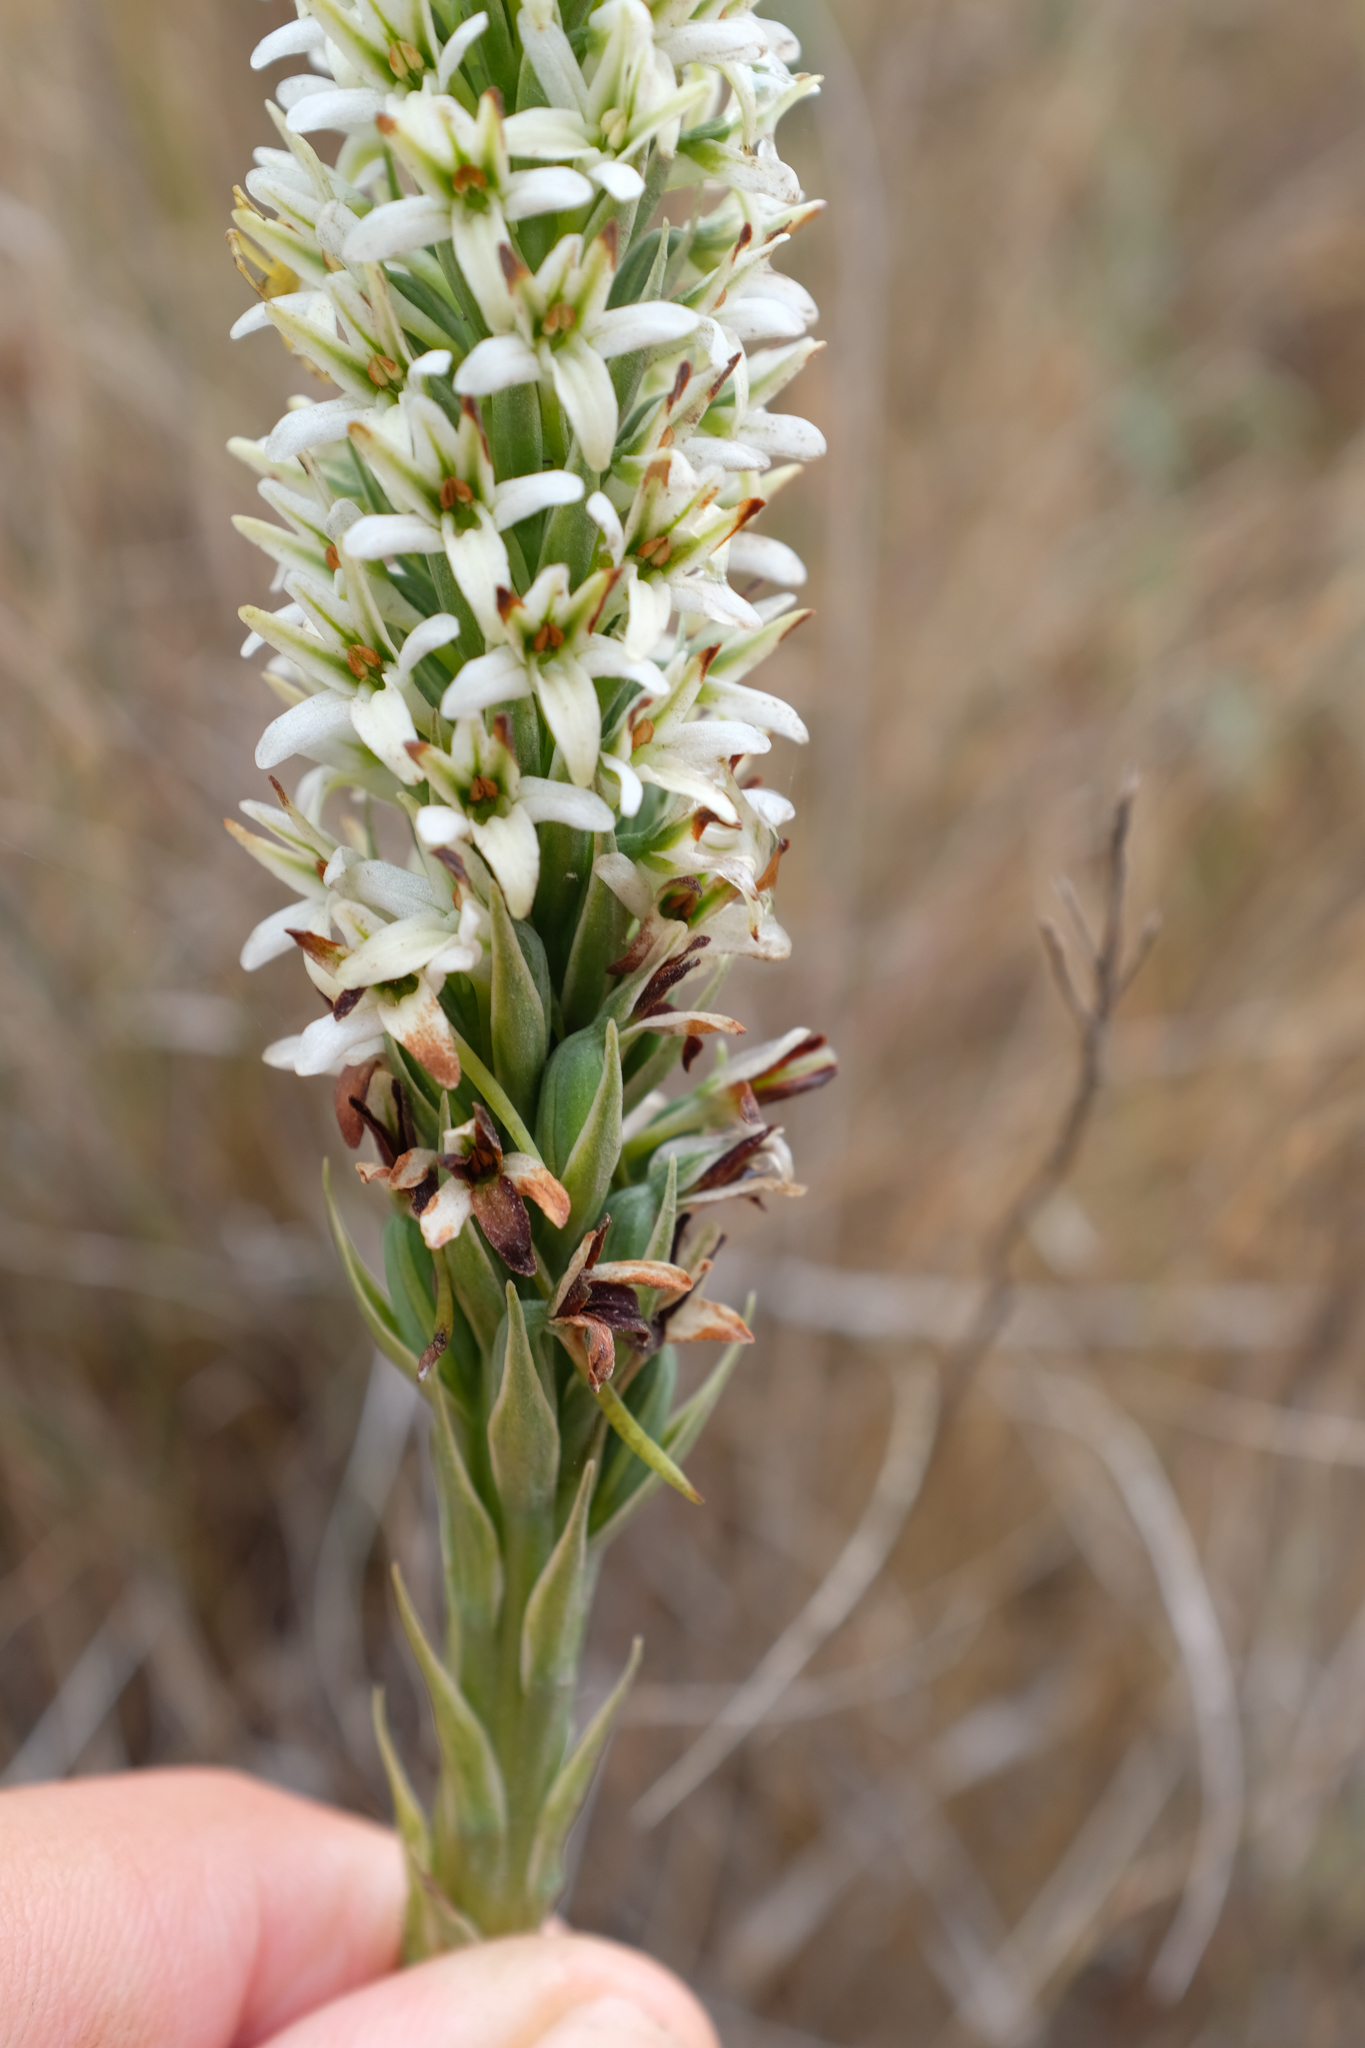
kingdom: Plantae
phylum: Tracheophyta
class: Liliopsida
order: Asparagales
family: Orchidaceae
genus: Platanthera
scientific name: Platanthera elegans
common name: Coast piperia
